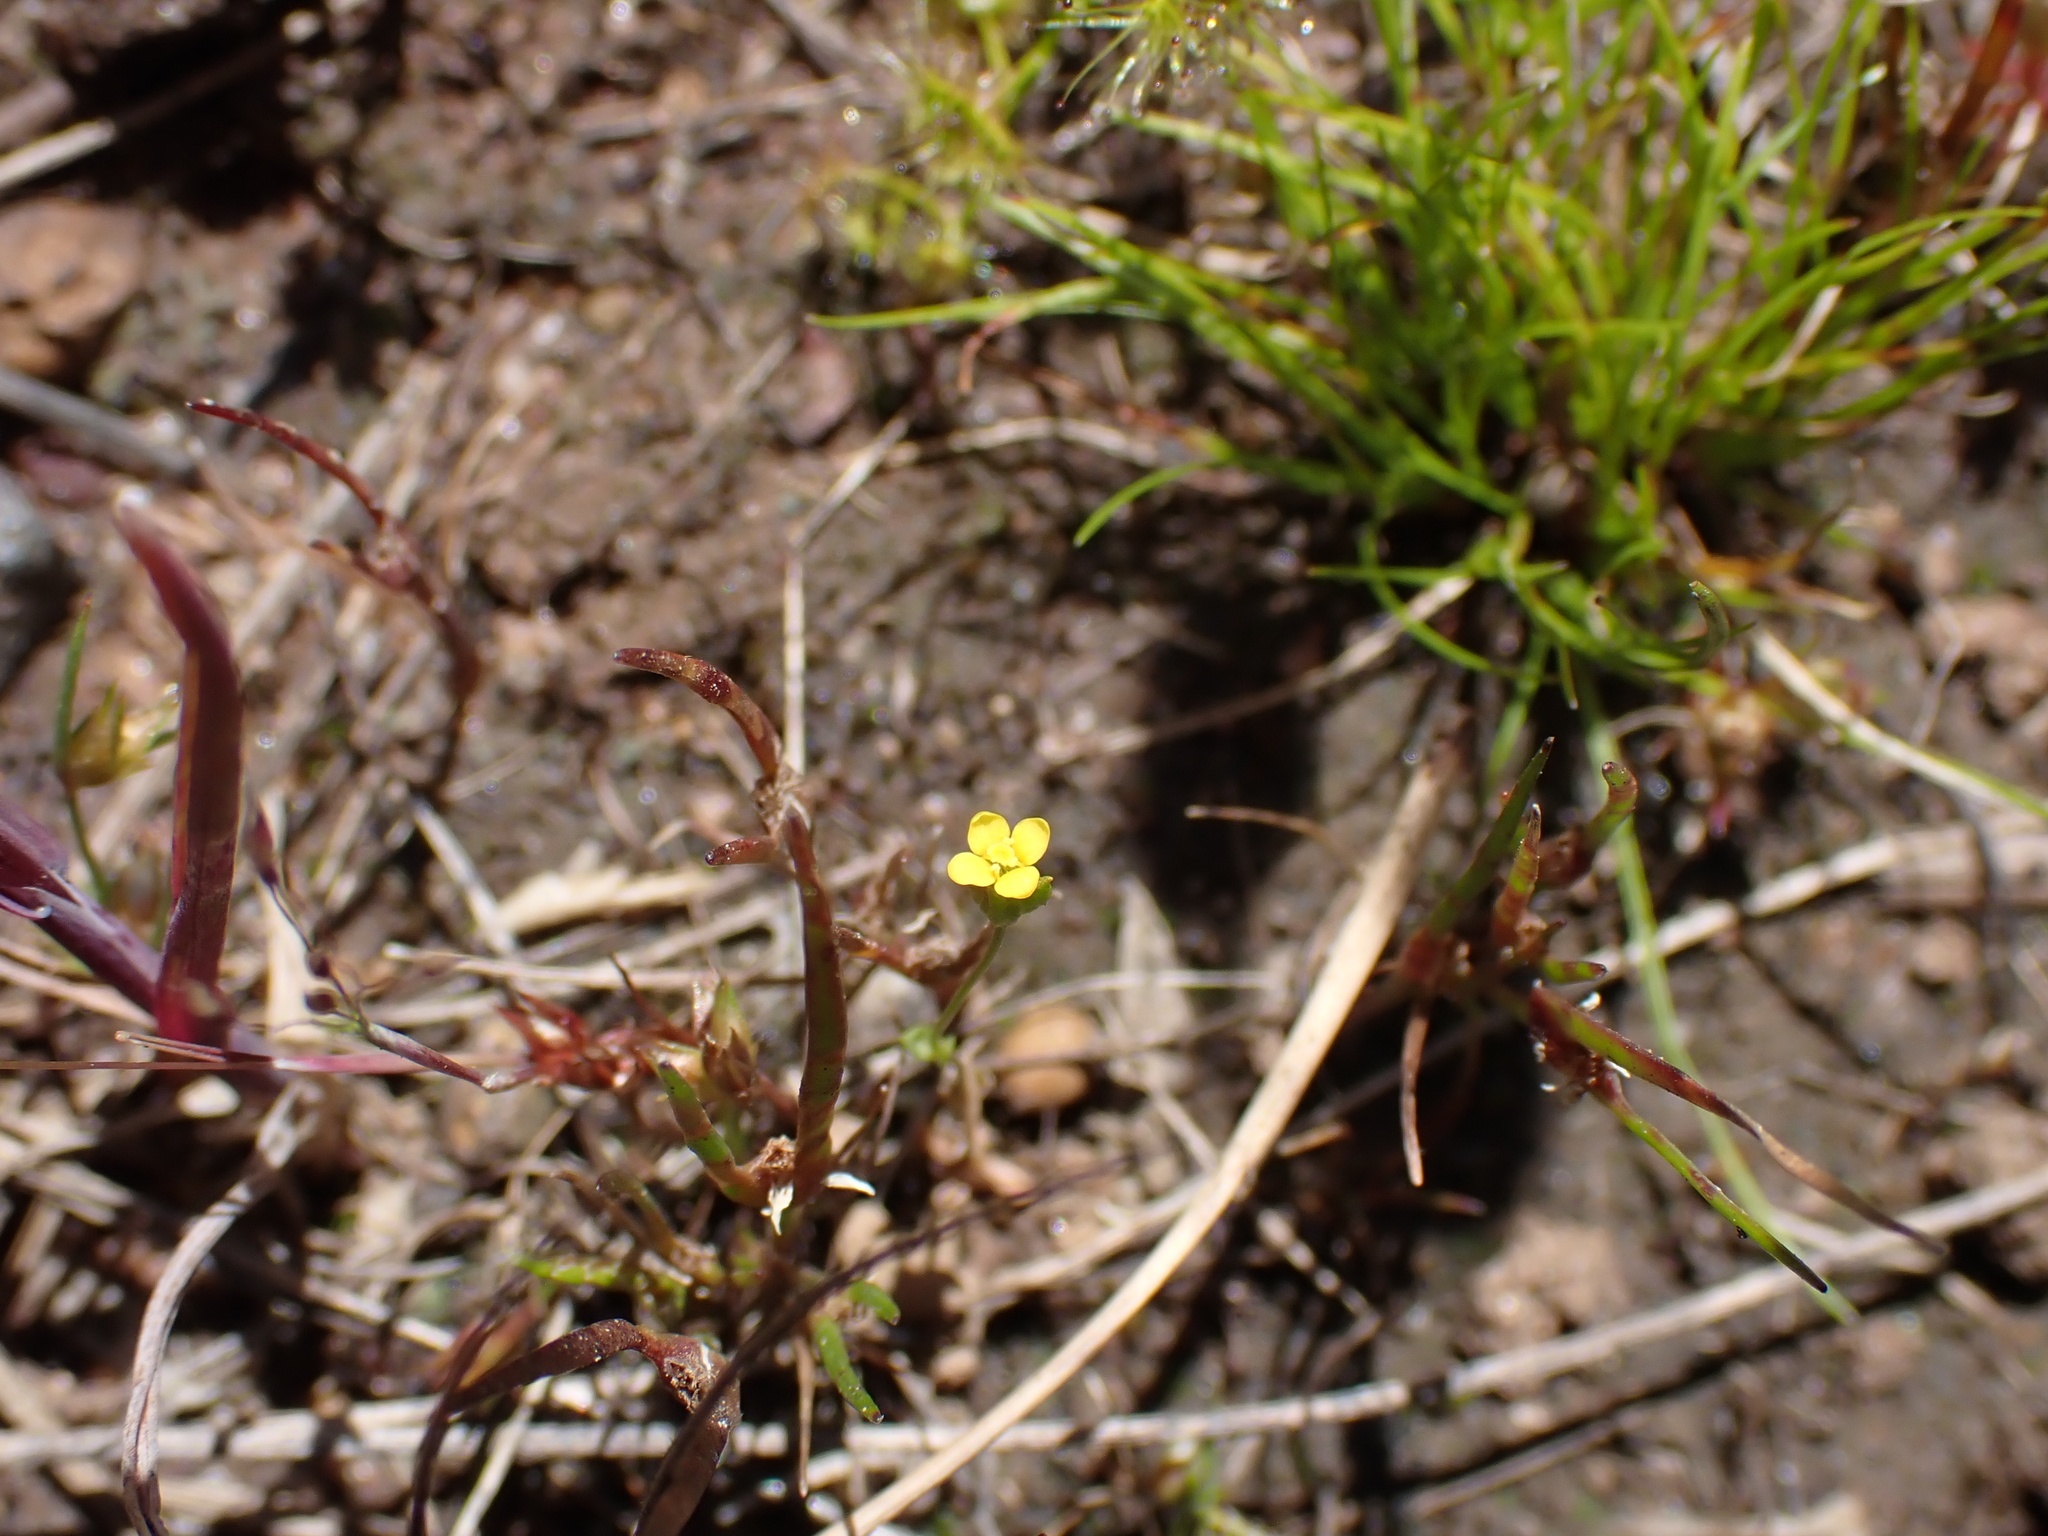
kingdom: Plantae
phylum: Tracheophyta
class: Magnoliopsida
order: Gentianales
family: Gentianaceae
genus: Microcala
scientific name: Microcala quadrangularis
